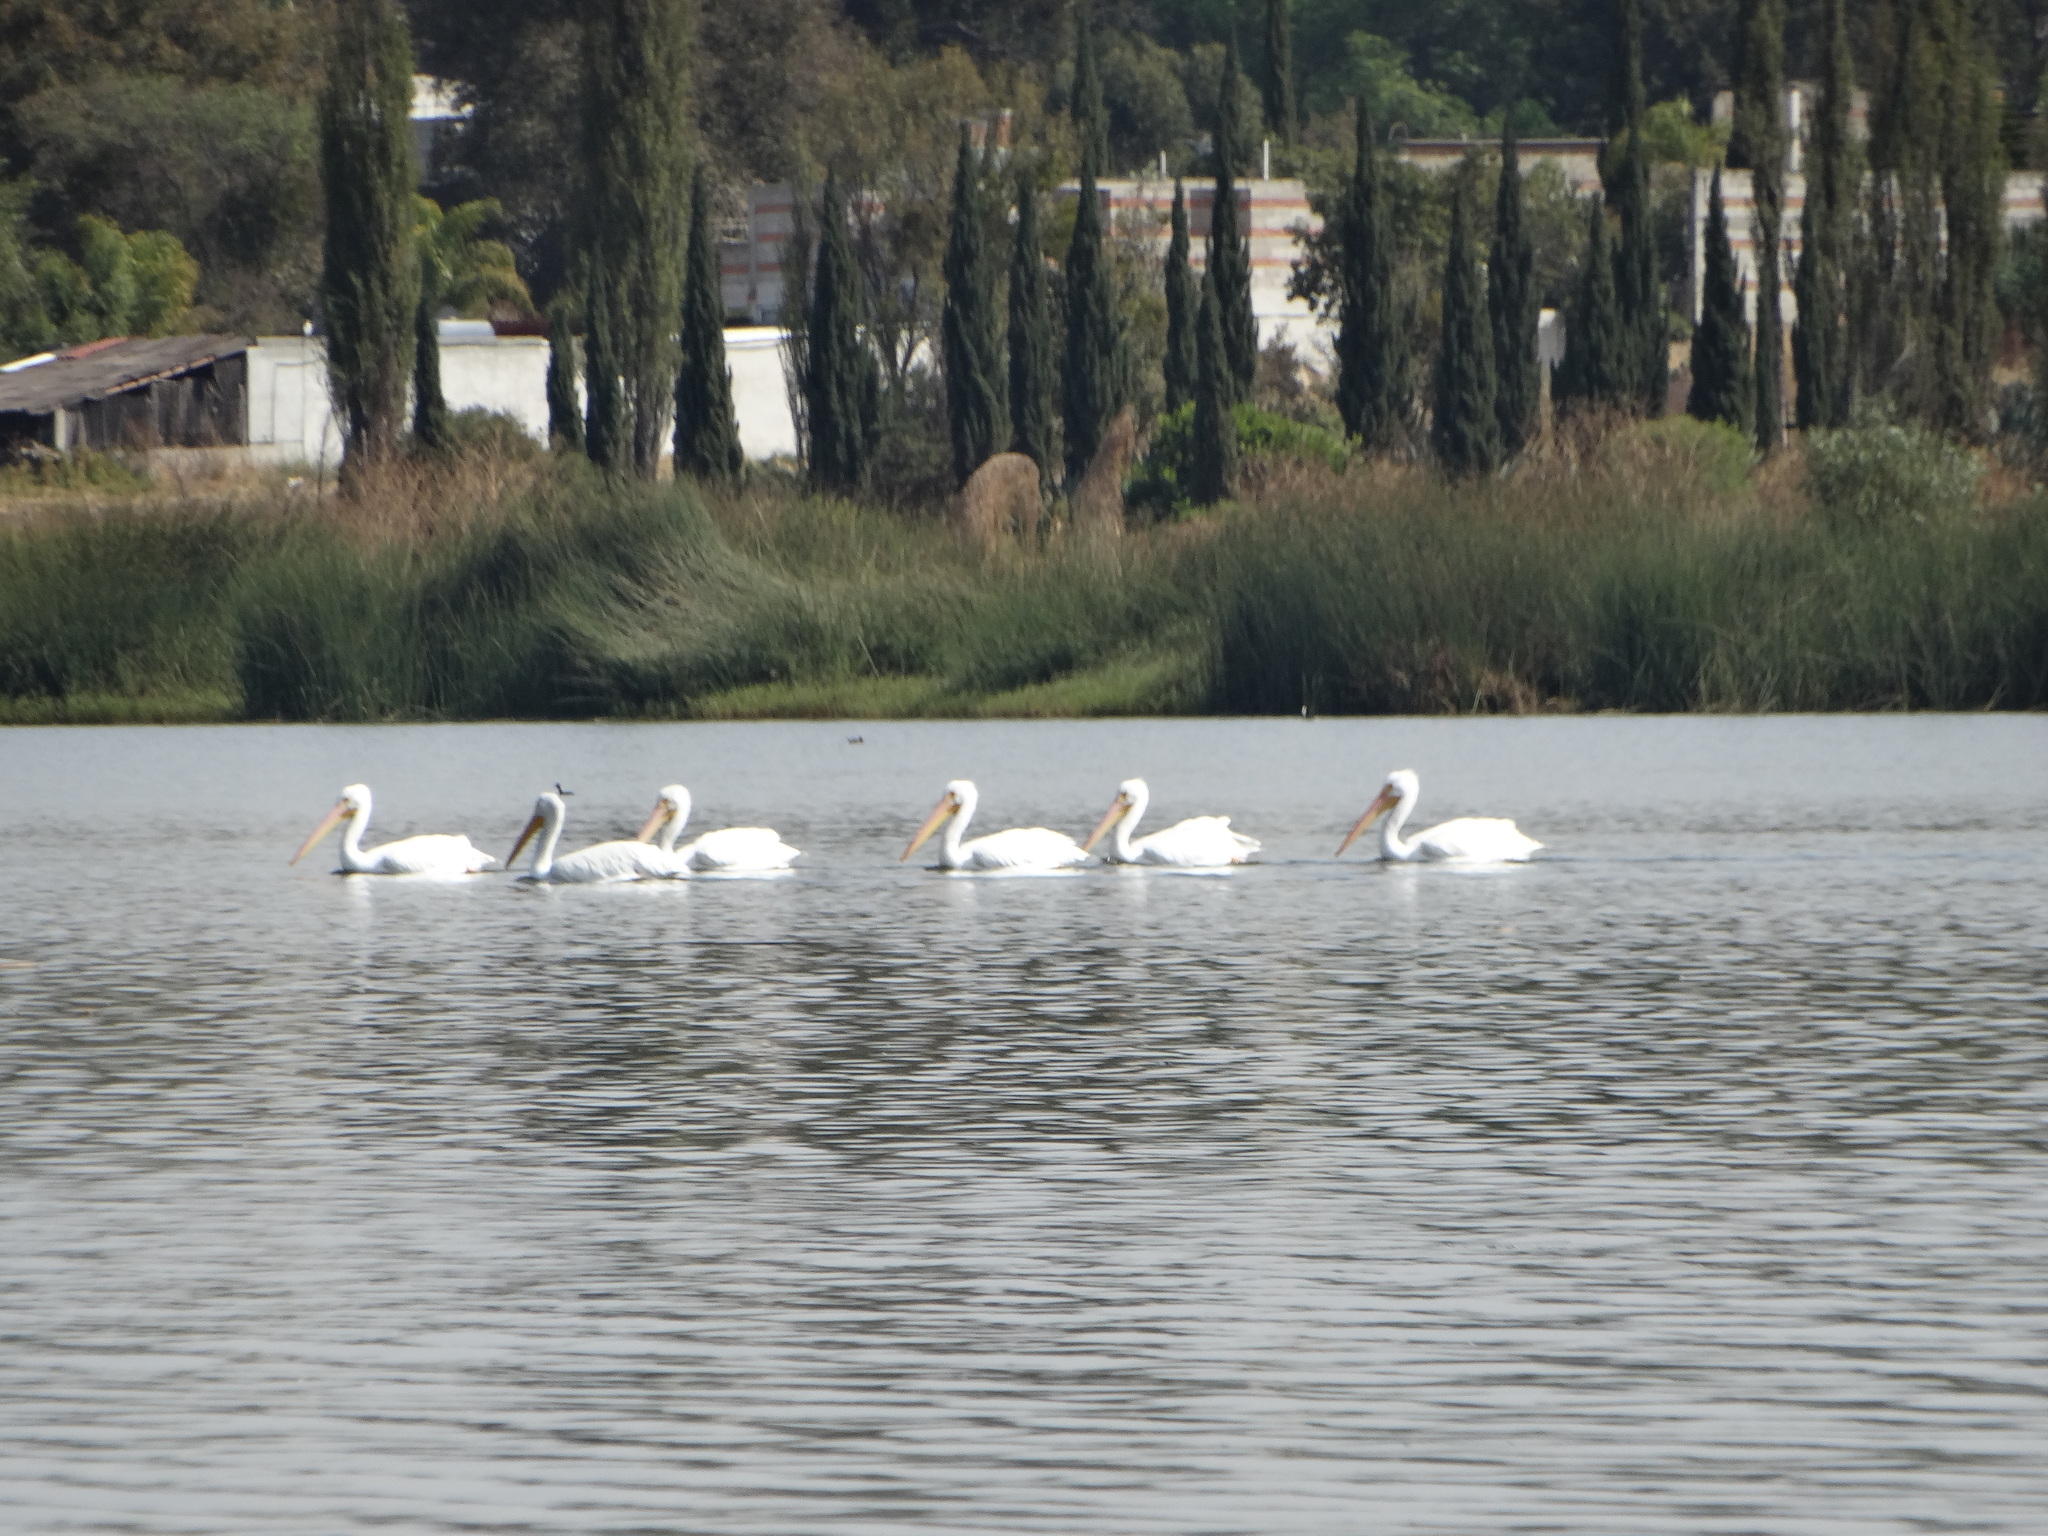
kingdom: Animalia
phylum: Chordata
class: Aves
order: Pelecaniformes
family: Pelecanidae
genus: Pelecanus
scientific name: Pelecanus erythrorhynchos
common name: American white pelican
